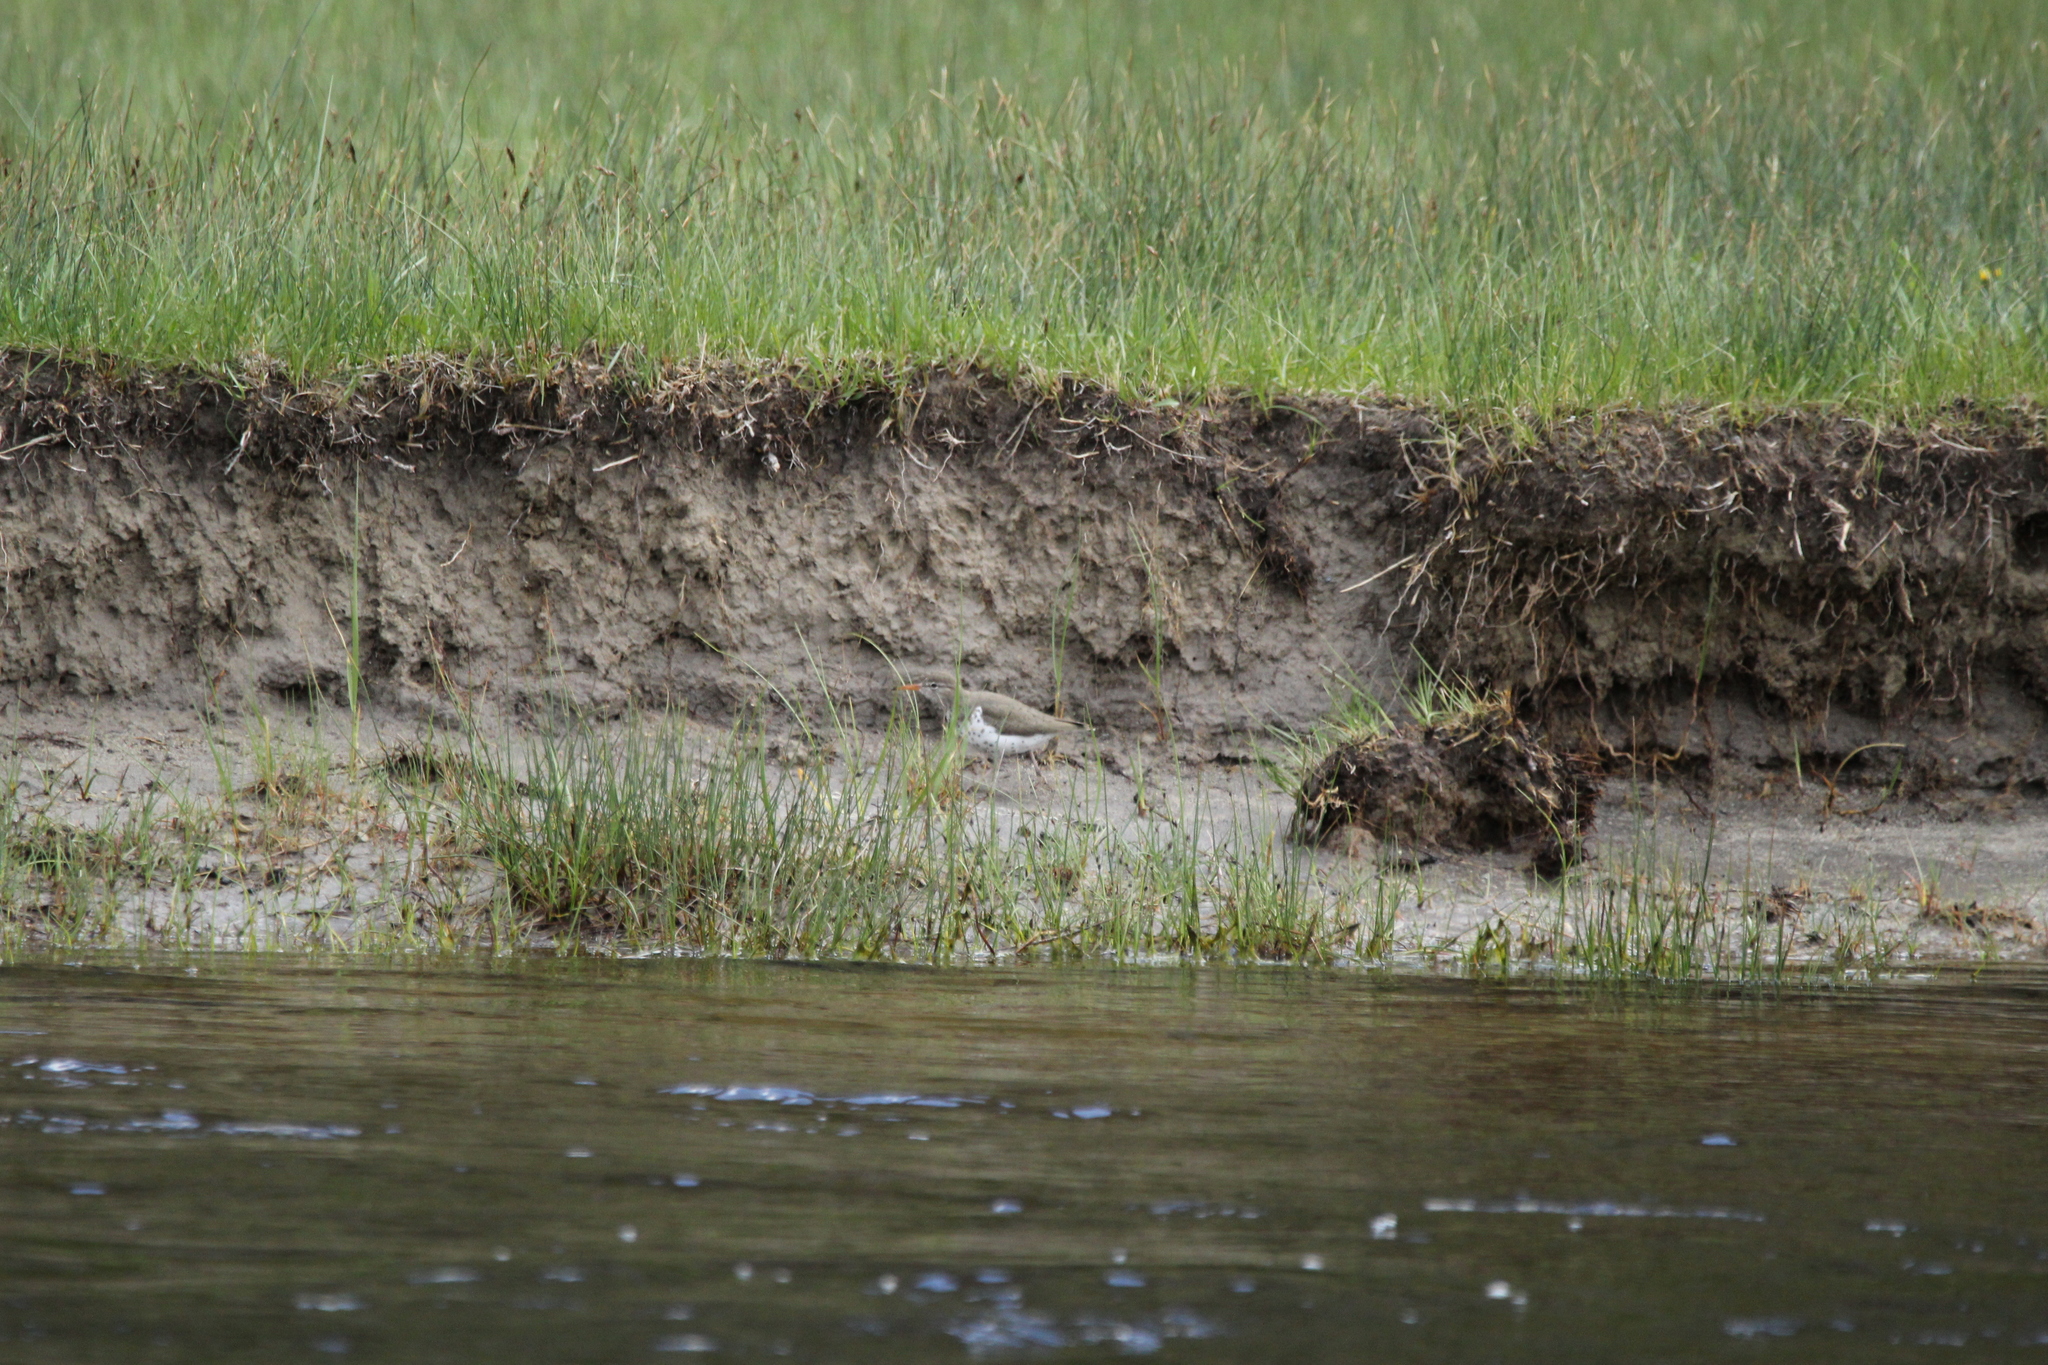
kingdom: Animalia
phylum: Chordata
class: Aves
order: Charadriiformes
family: Scolopacidae
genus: Actitis
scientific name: Actitis macularius
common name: Spotted sandpiper
